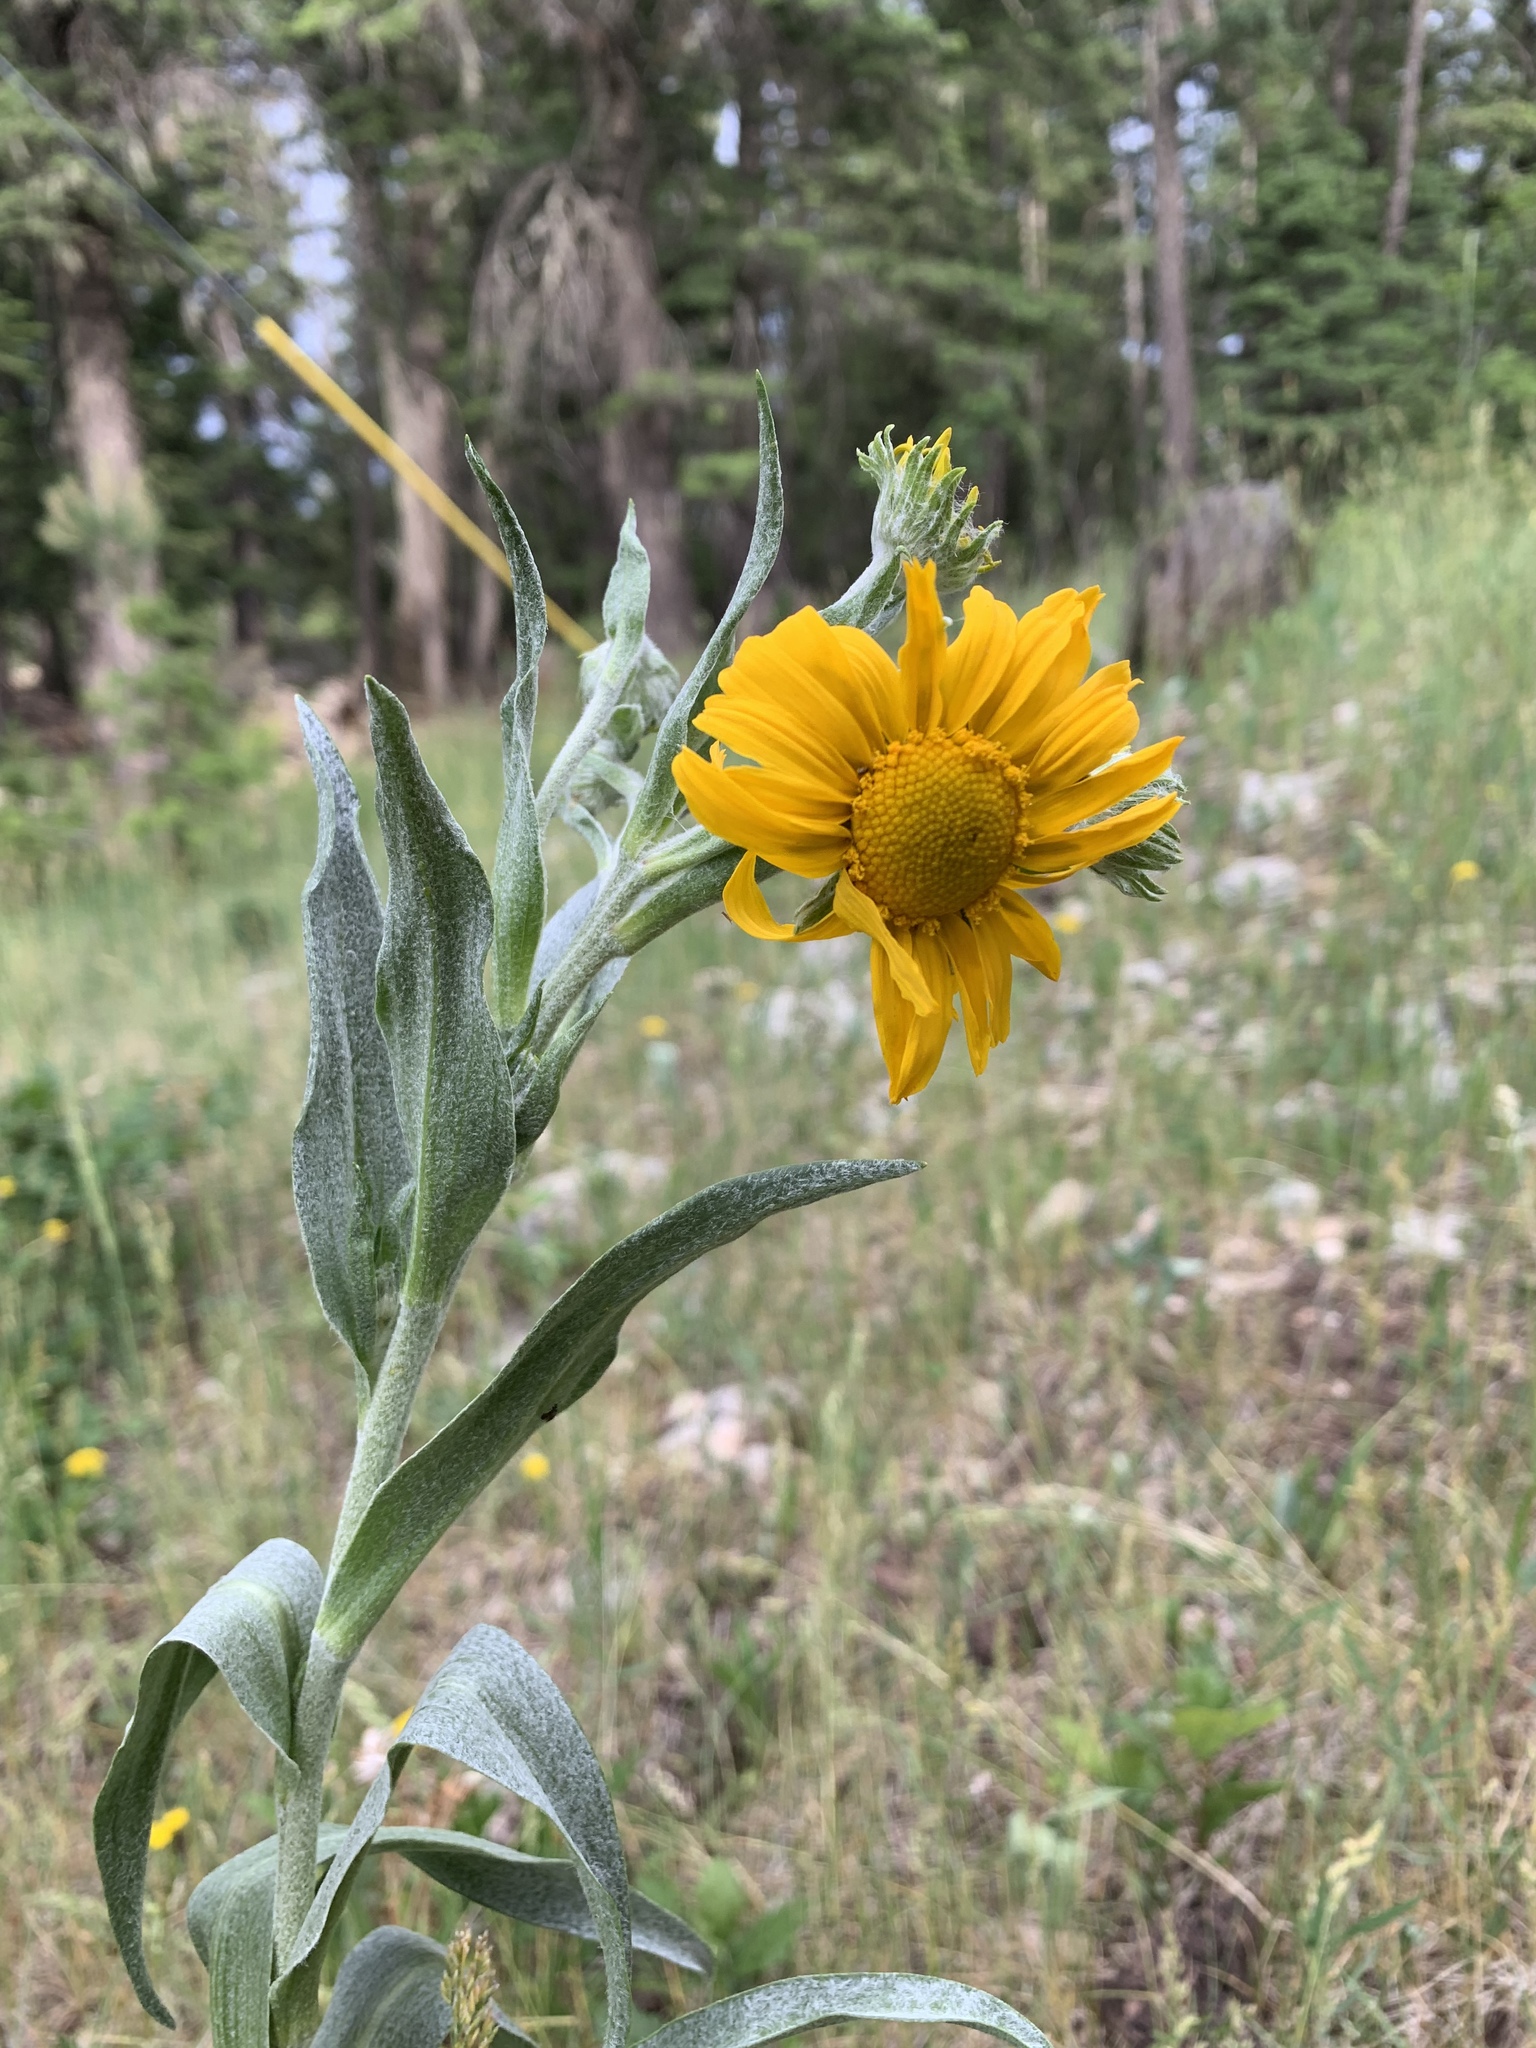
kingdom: Plantae
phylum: Tracheophyta
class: Magnoliopsida
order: Asterales
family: Asteraceae
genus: Hymenoxys
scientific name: Hymenoxys hoopesii
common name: Orange-sneezeweed
